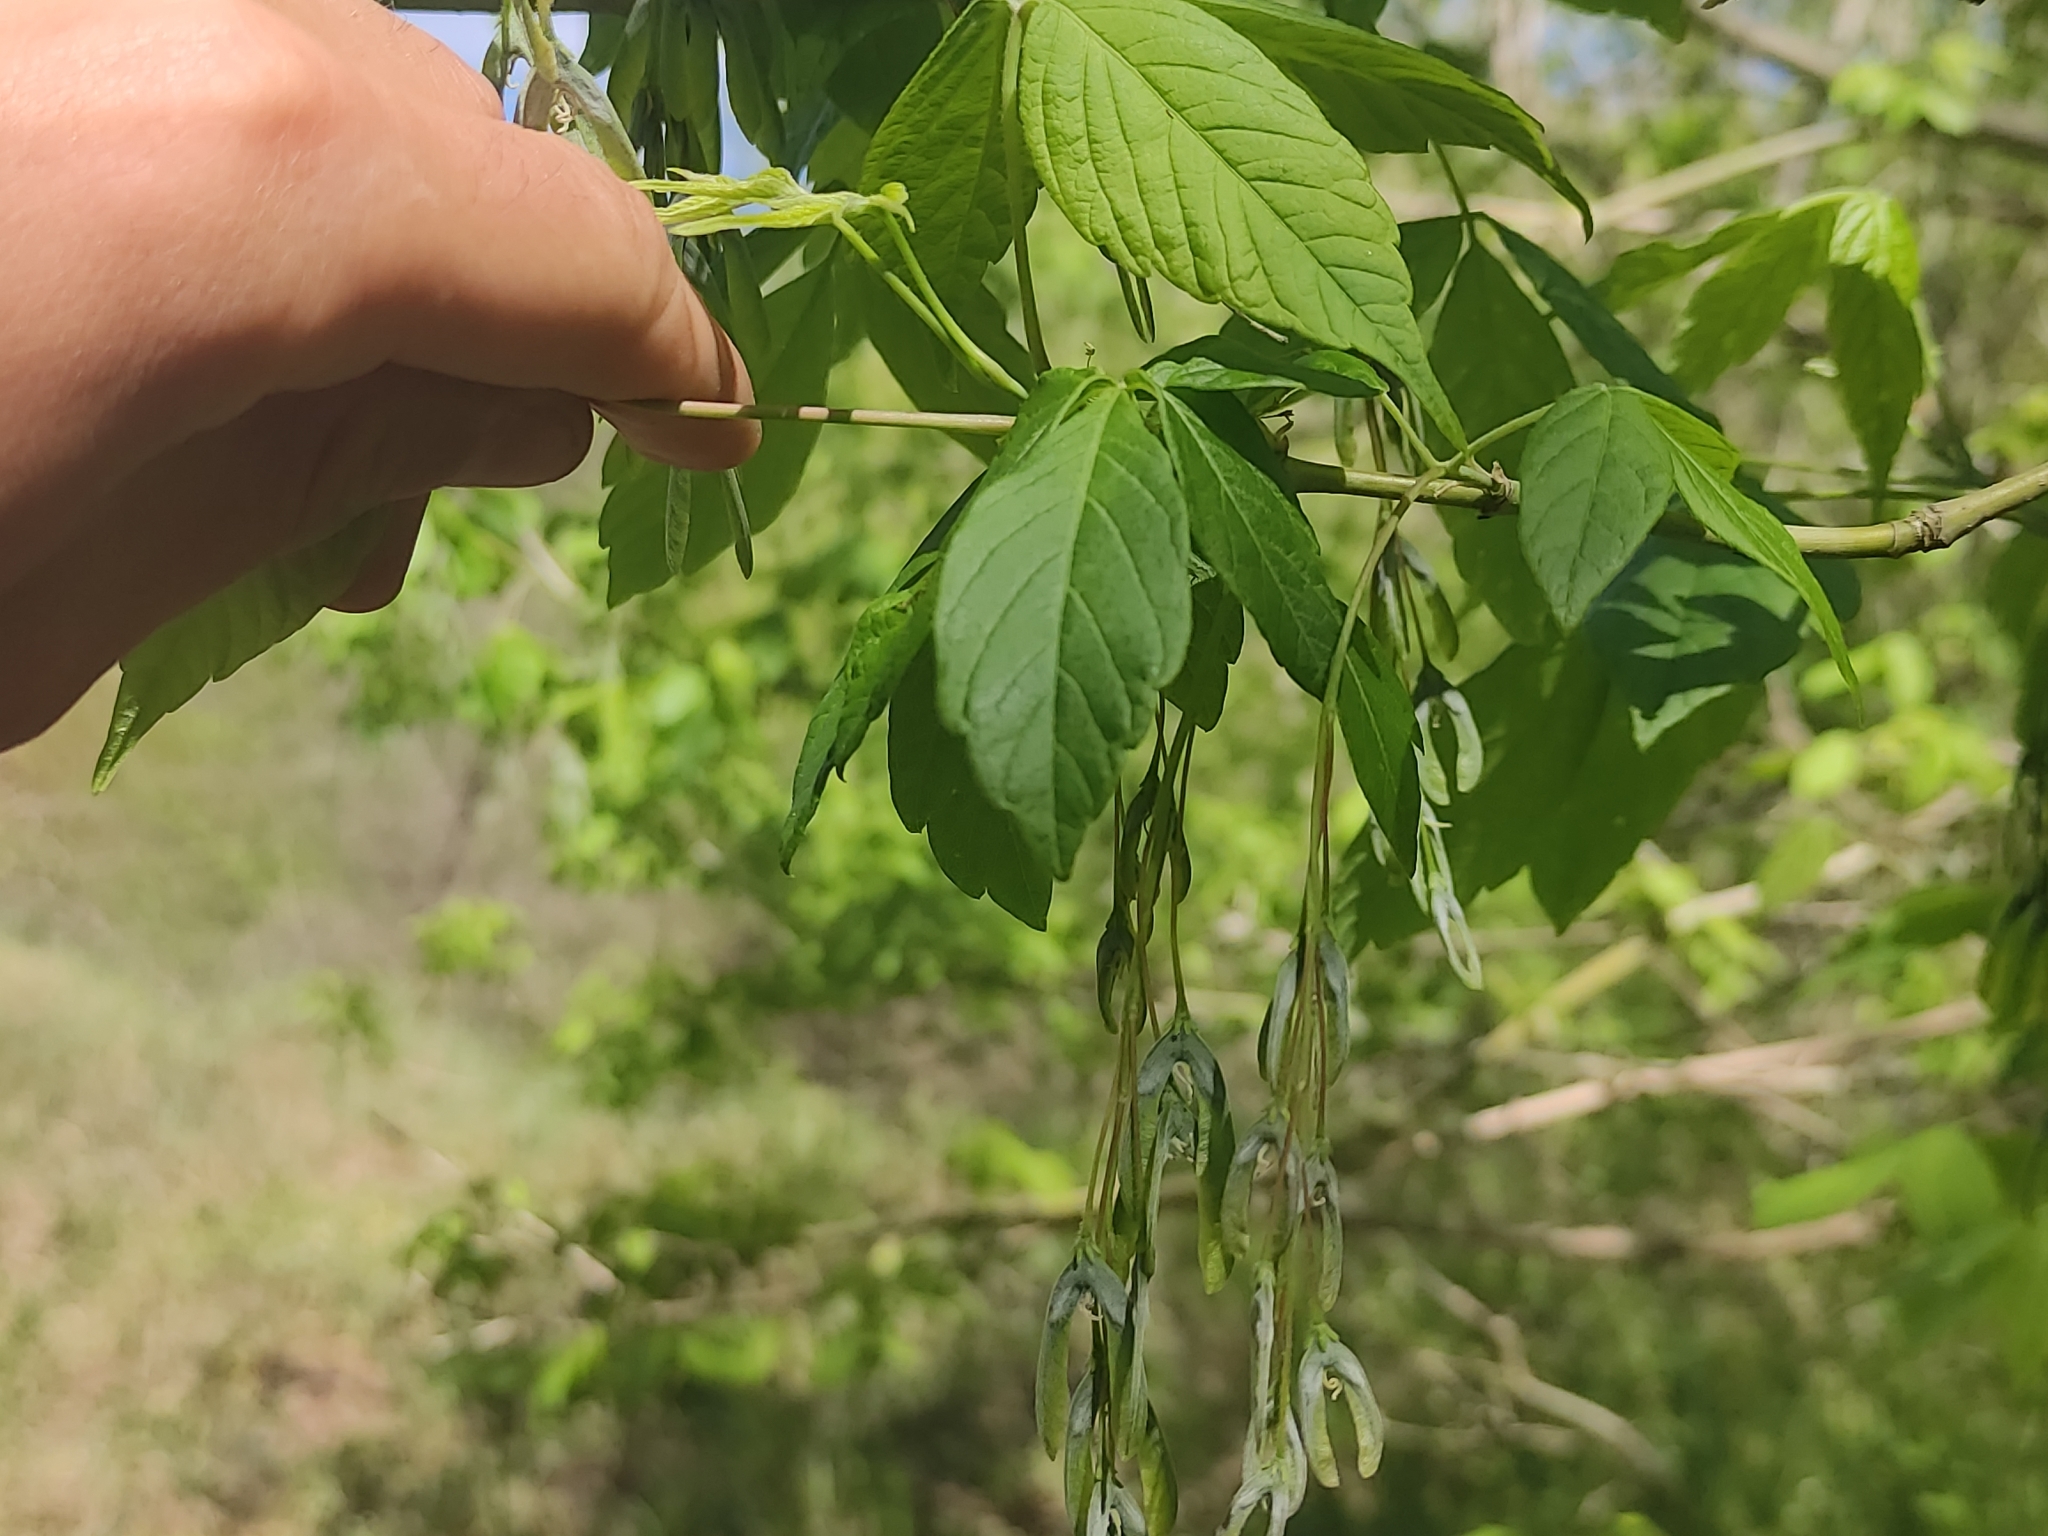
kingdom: Plantae
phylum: Tracheophyta
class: Magnoliopsida
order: Sapindales
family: Sapindaceae
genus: Acer
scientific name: Acer negundo
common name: Ashleaf maple
